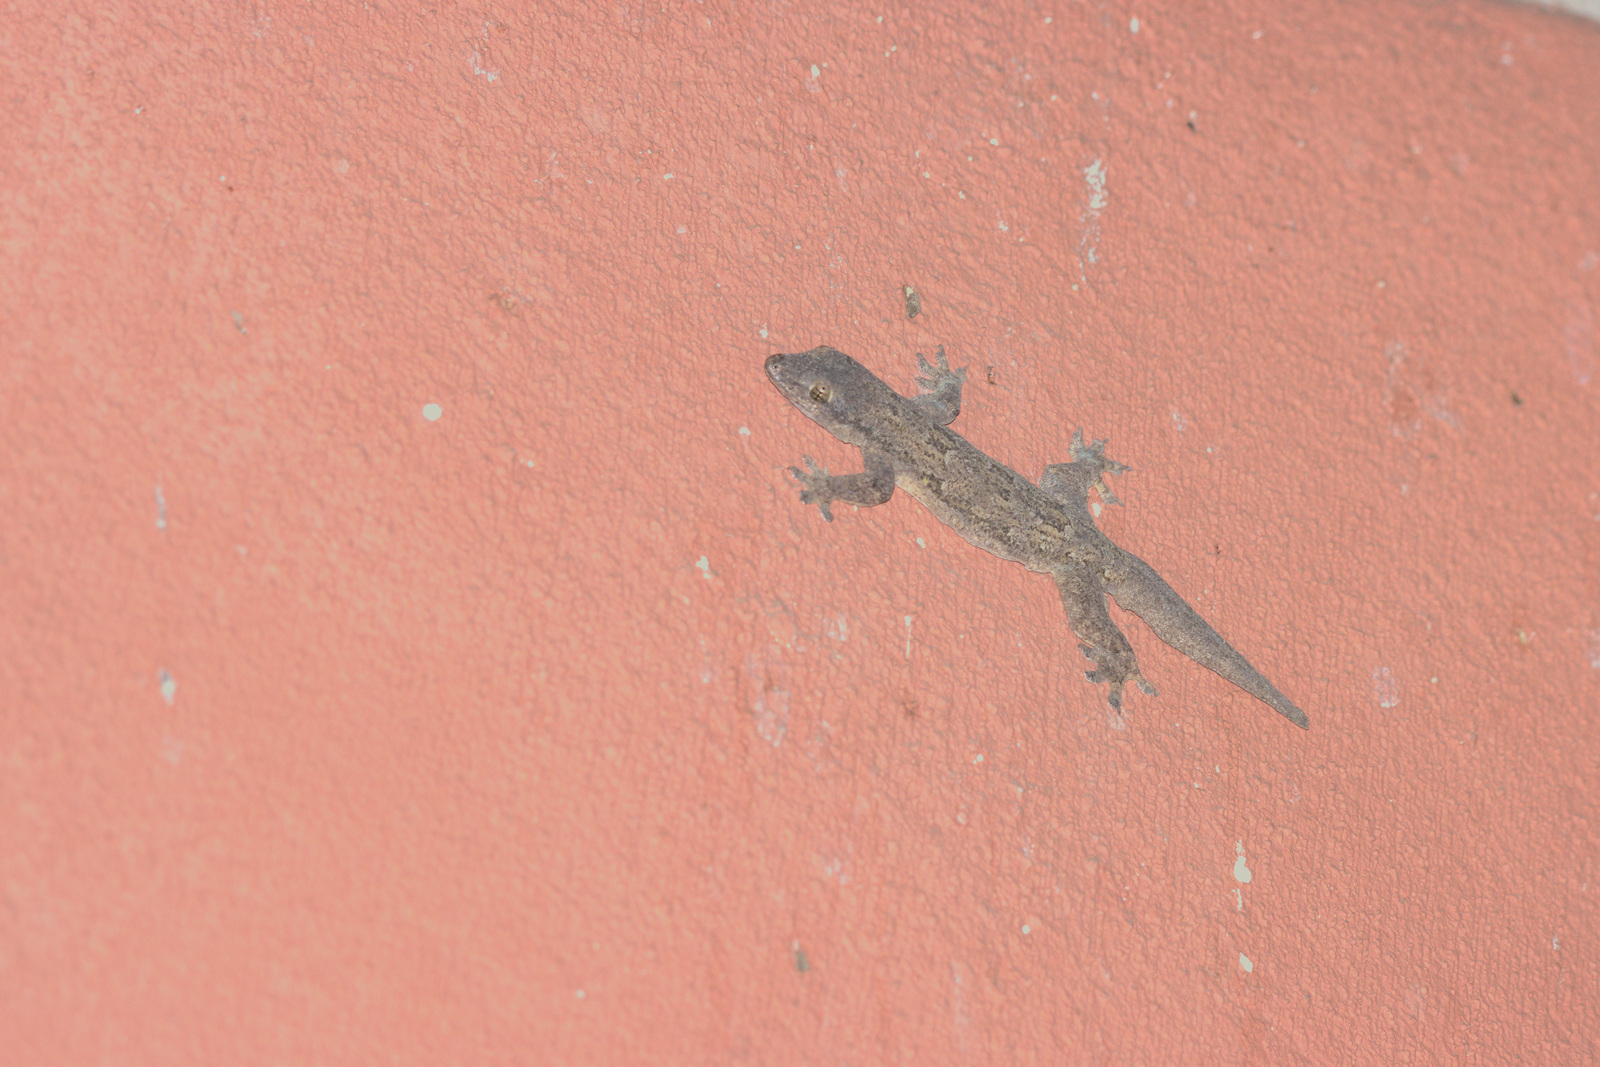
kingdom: Animalia
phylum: Chordata
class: Squamata
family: Gekkonidae
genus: Hemidactylus
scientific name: Hemidactylus platyurus
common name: Flat-tailed house gecko
